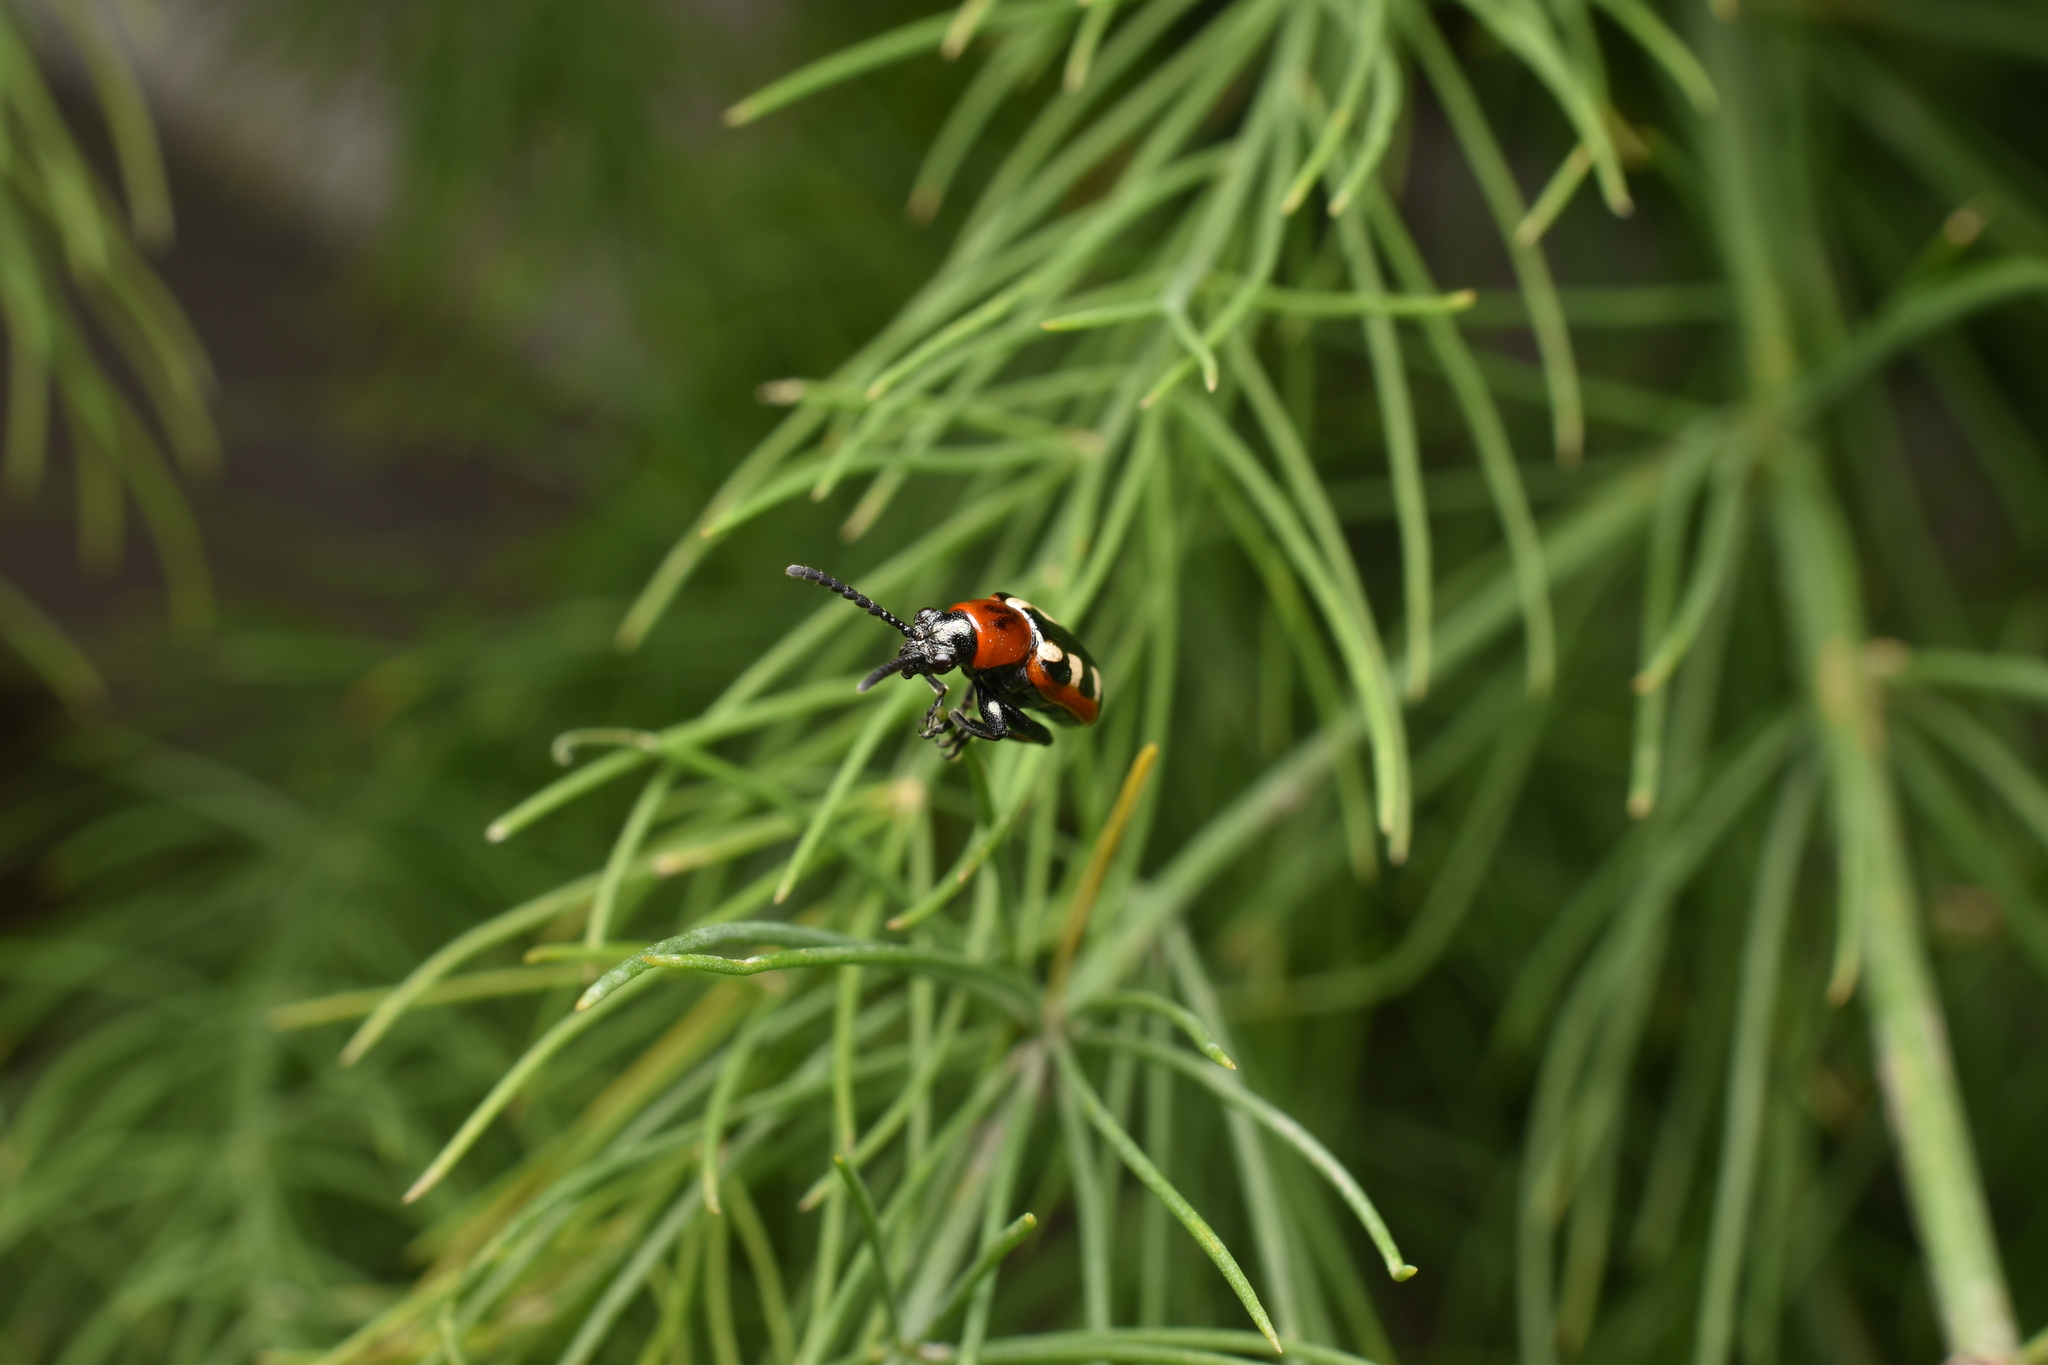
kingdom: Animalia
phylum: Arthropoda
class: Insecta
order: Coleoptera
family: Chrysomelidae
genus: Crioceris
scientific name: Crioceris asparagi
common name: Asparagus beetle
